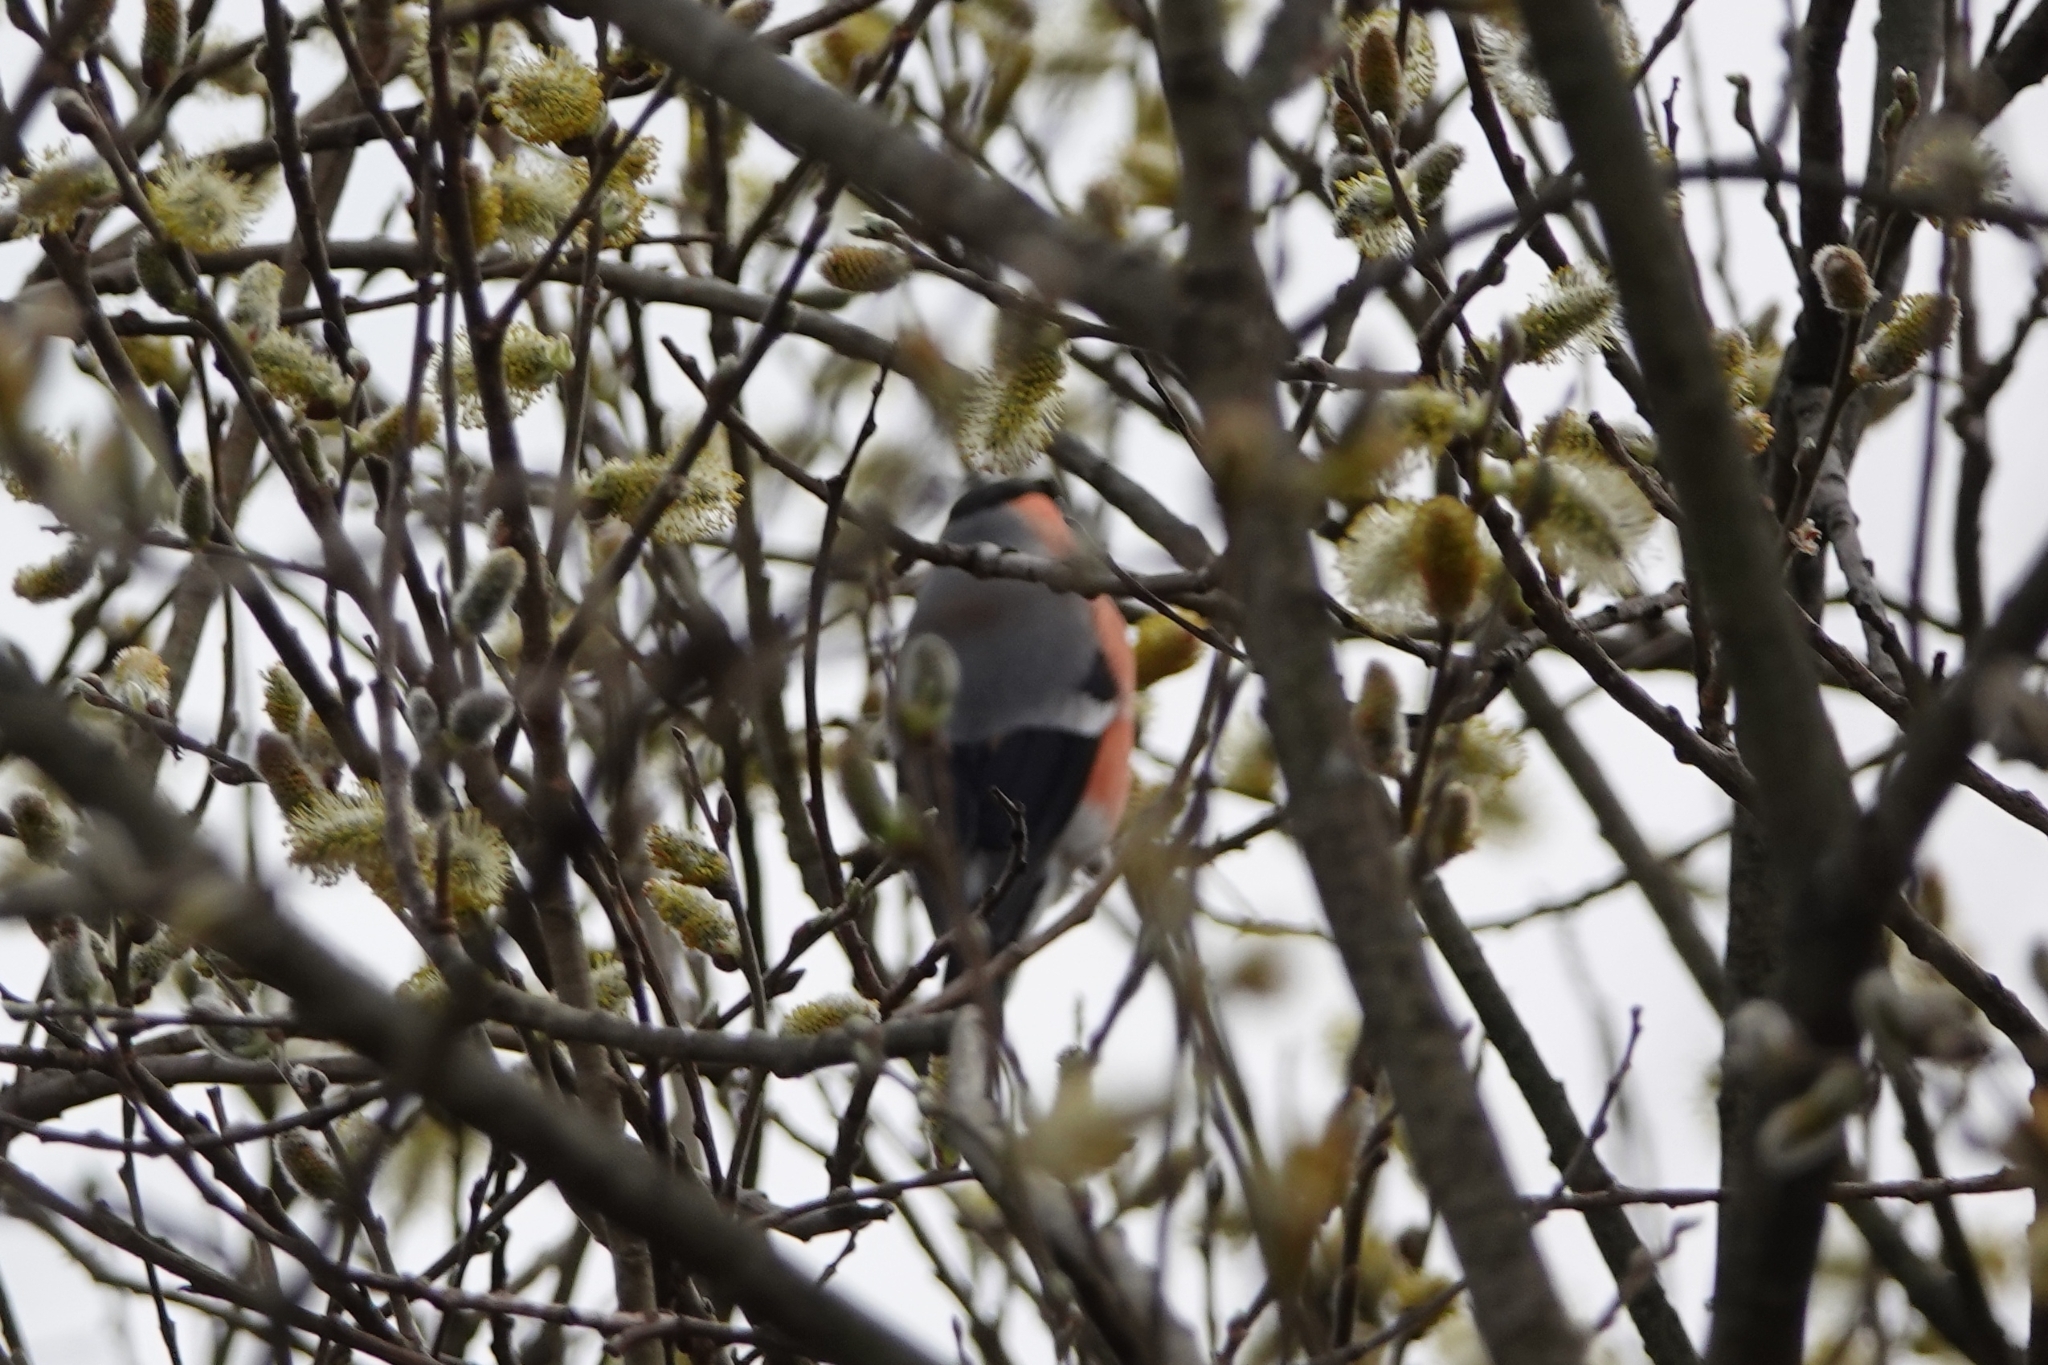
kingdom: Animalia
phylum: Chordata
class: Aves
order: Passeriformes
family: Fringillidae
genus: Pyrrhula
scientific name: Pyrrhula pyrrhula
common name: Eurasian bullfinch
